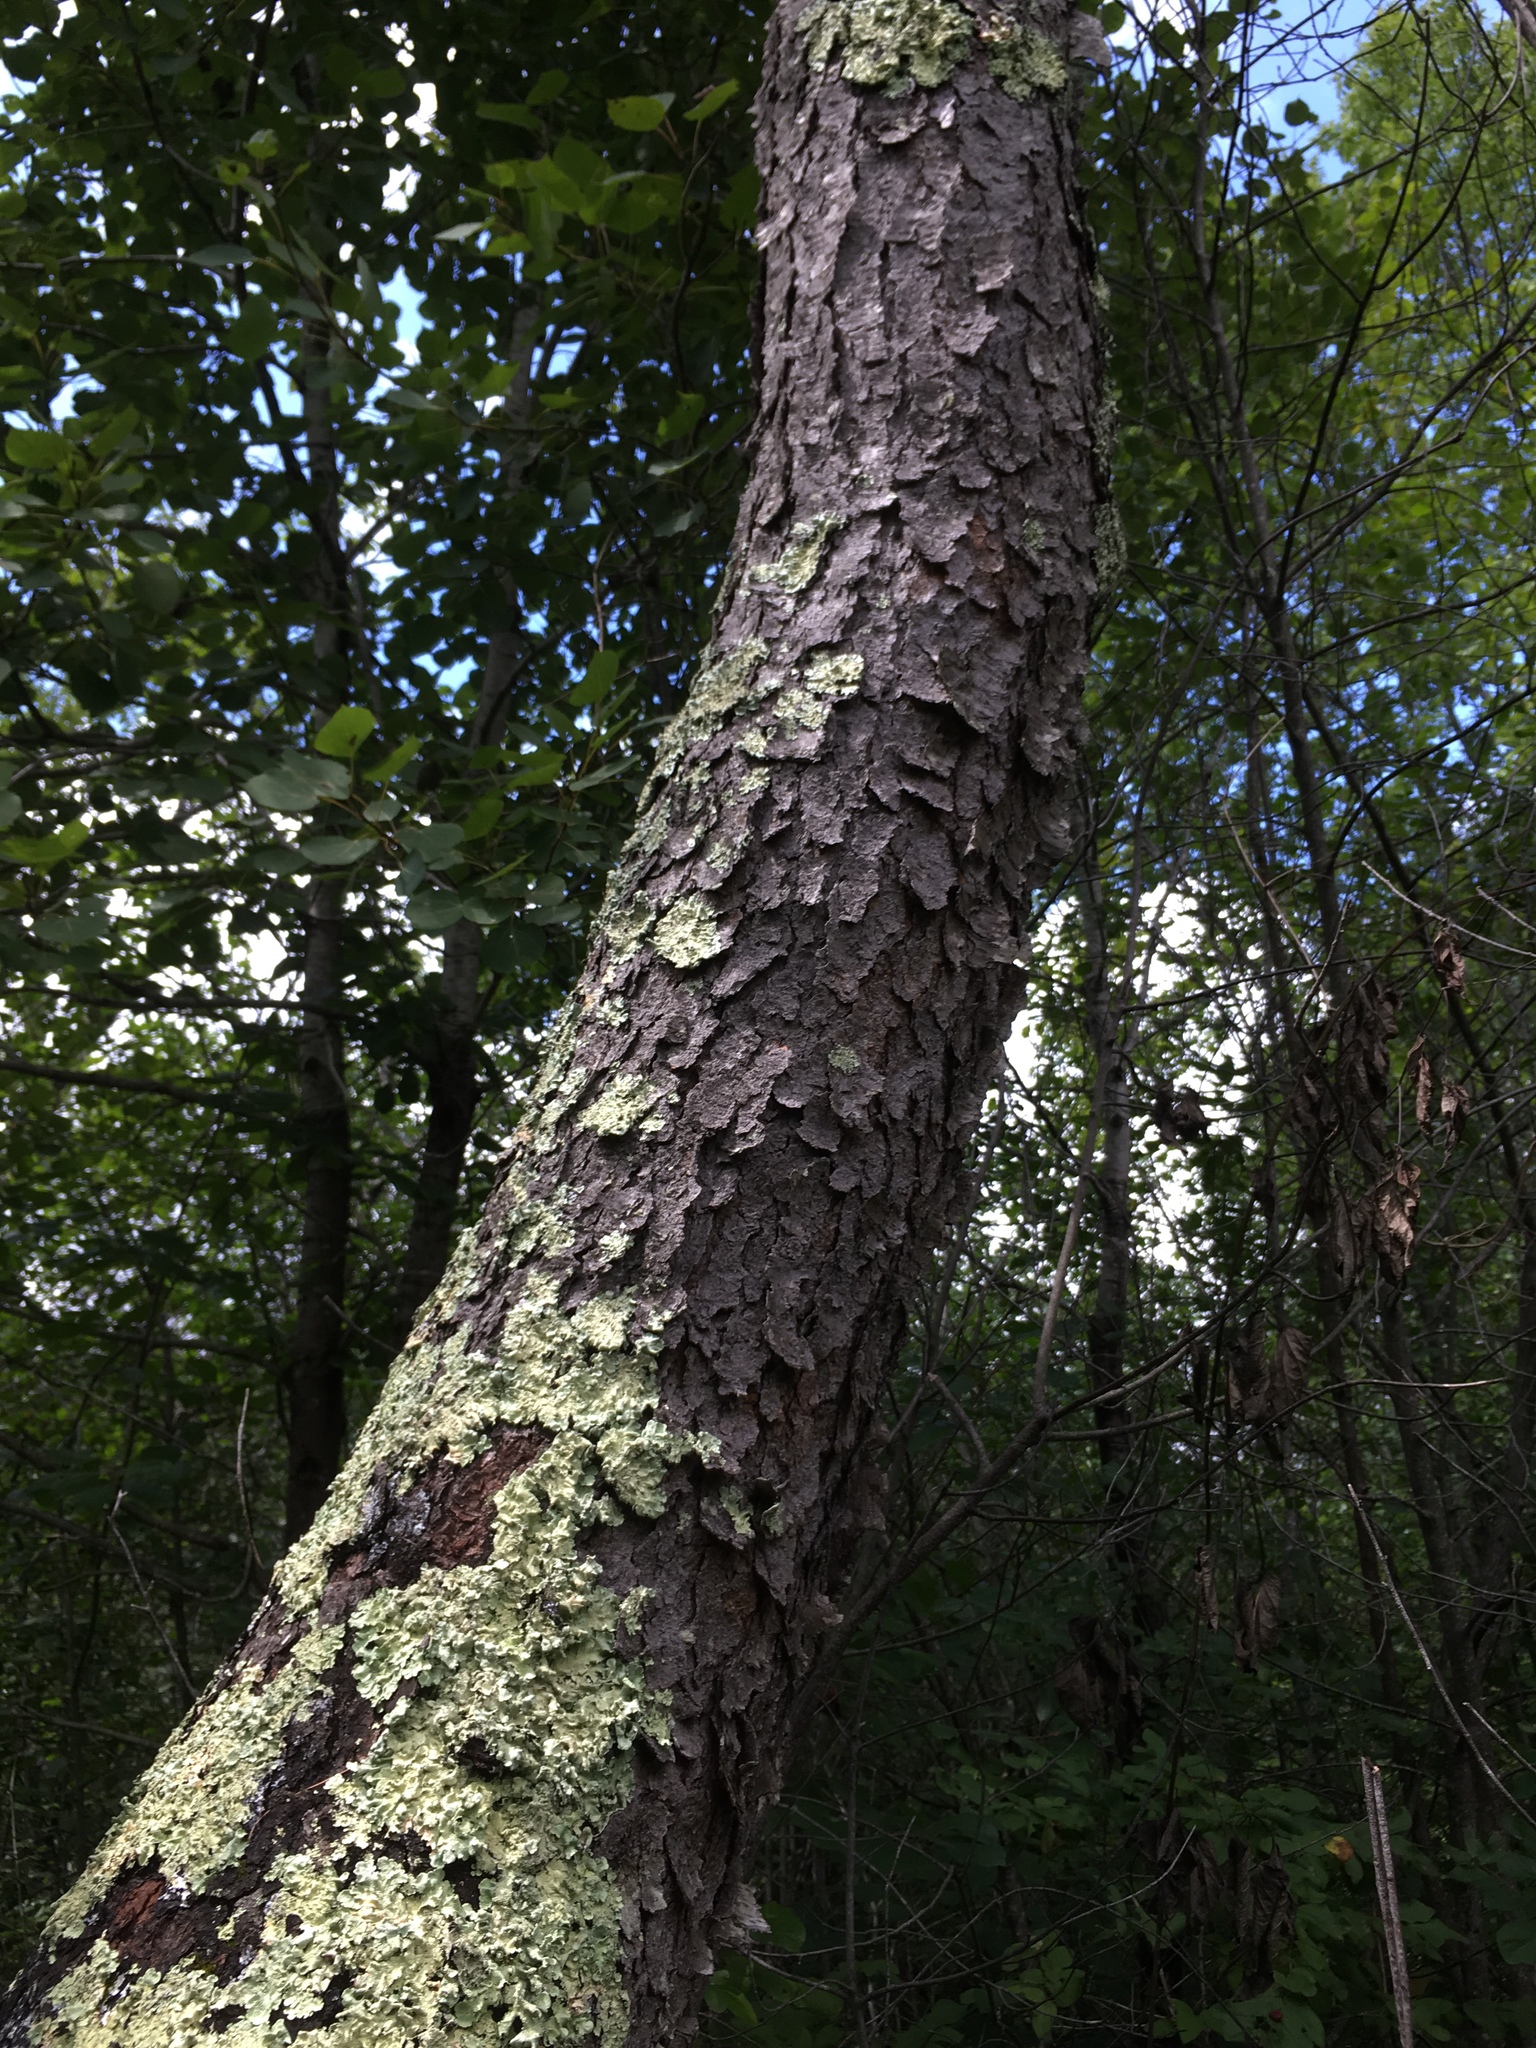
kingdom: Plantae
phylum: Tracheophyta
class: Magnoliopsida
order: Rosales
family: Rosaceae
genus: Prunus
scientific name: Prunus serotina
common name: Black cherry
